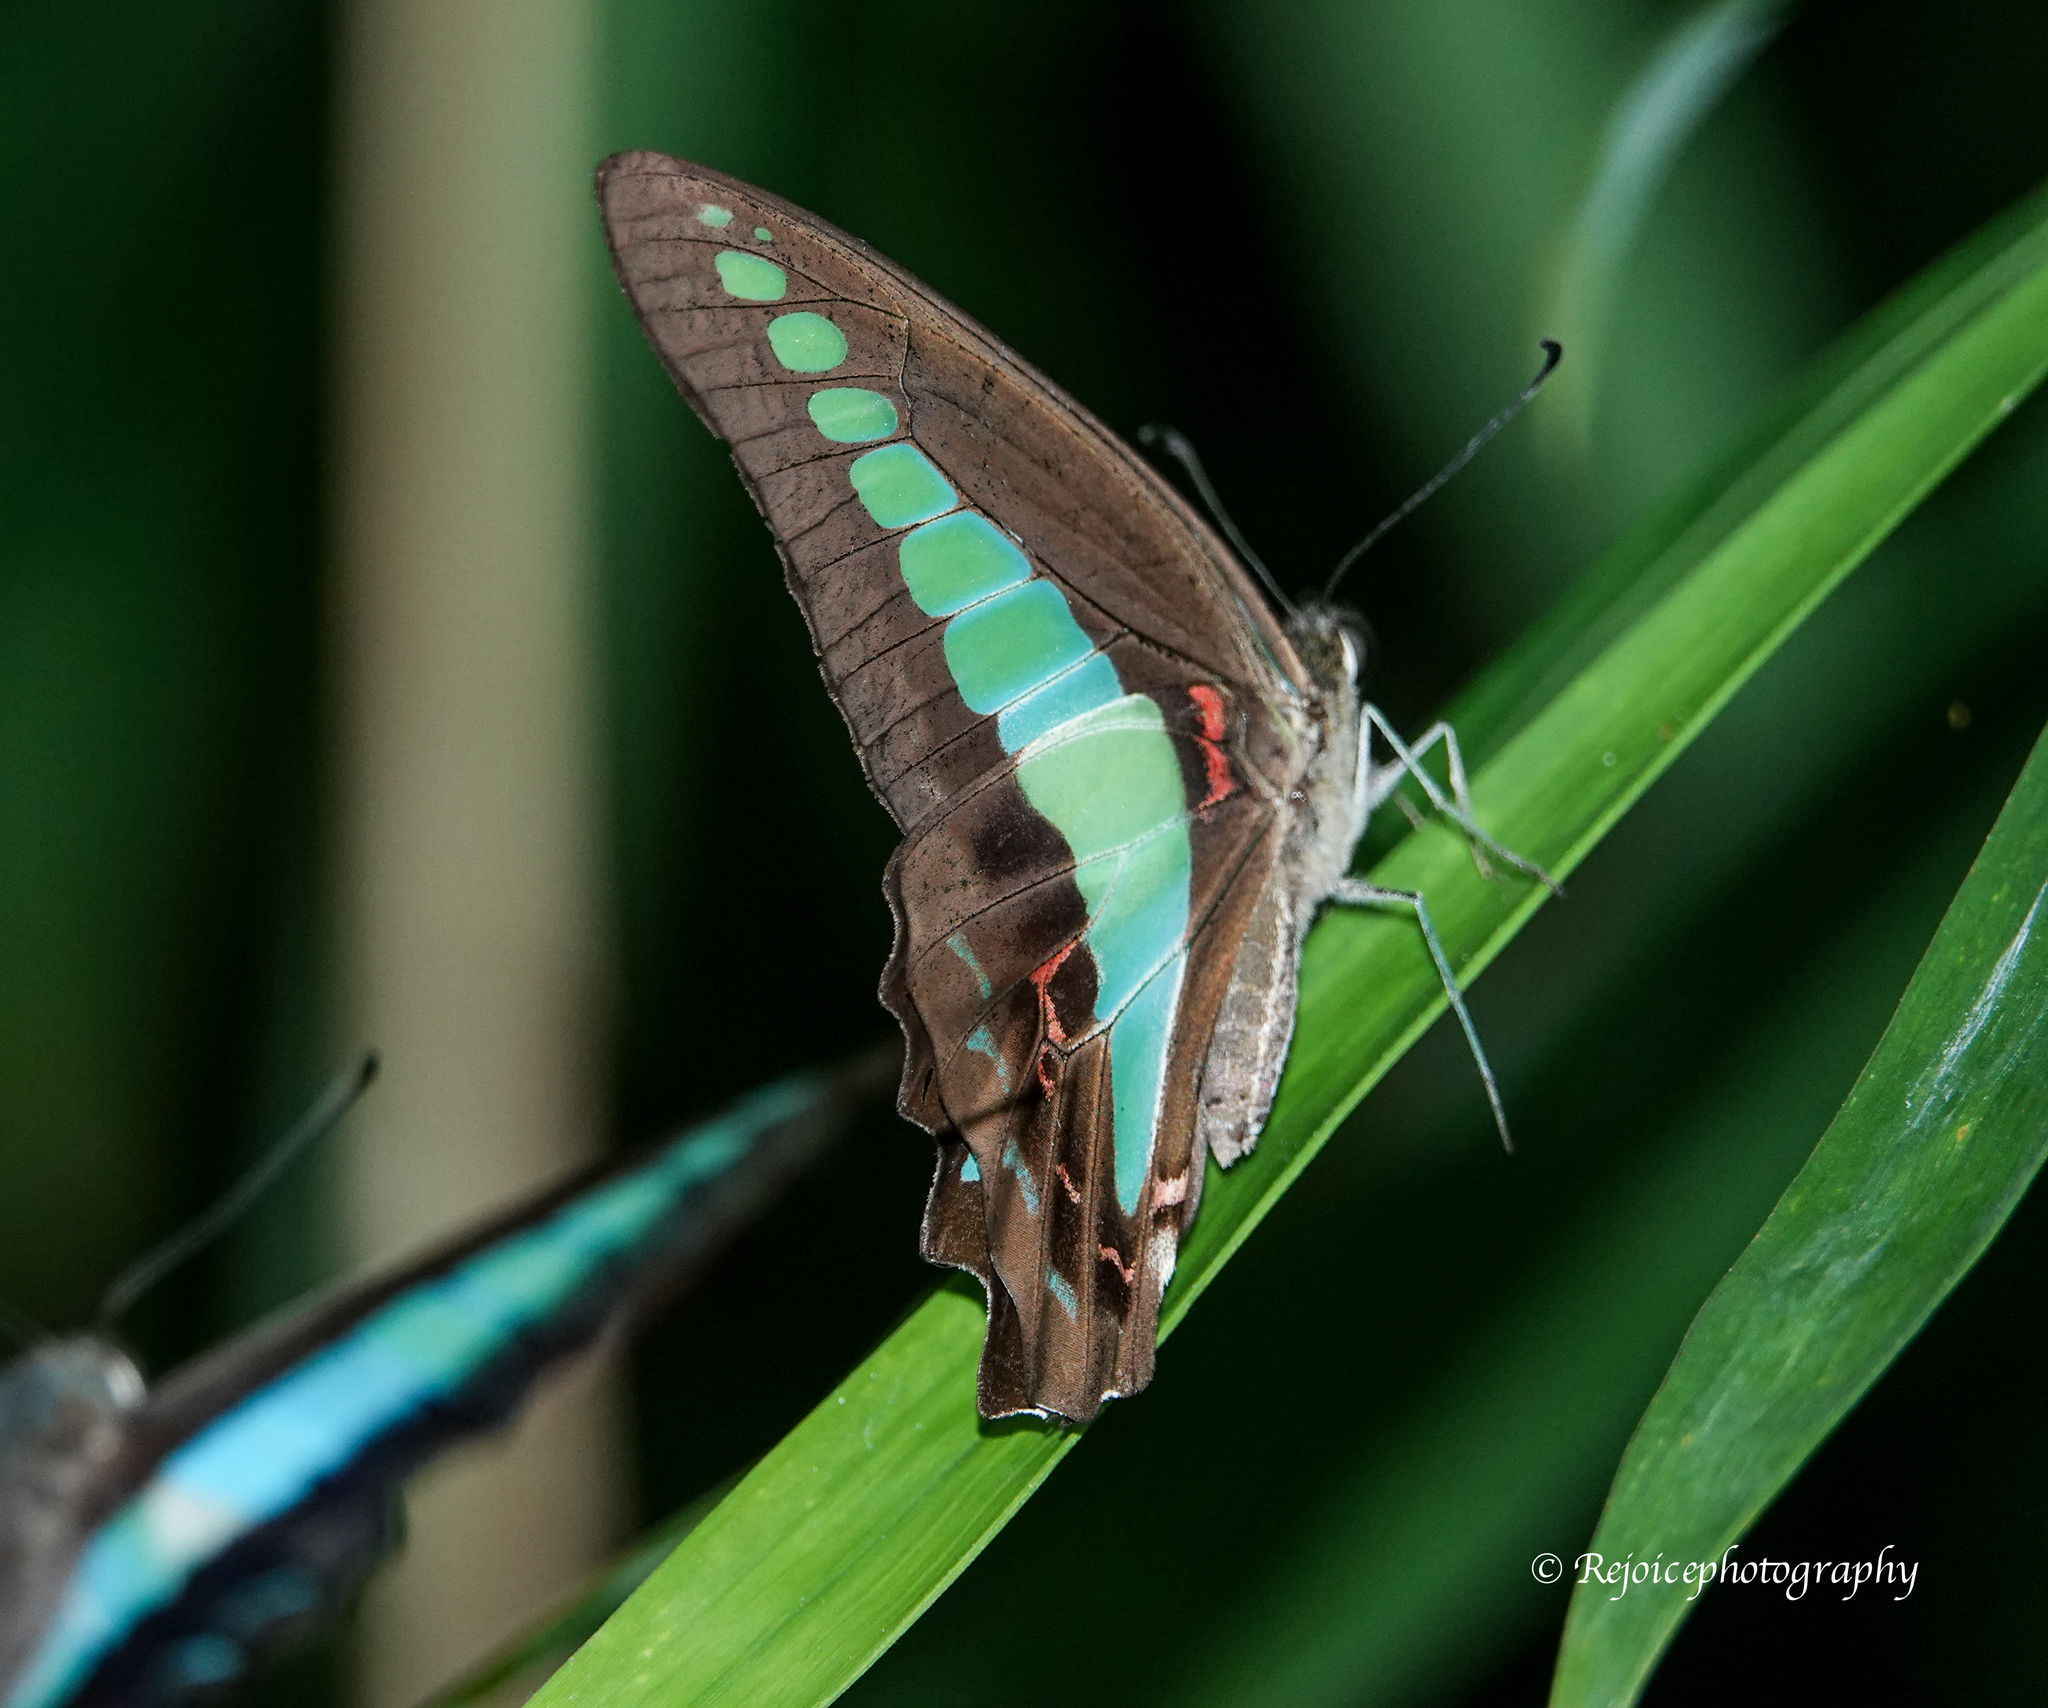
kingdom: Fungi
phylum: Ascomycota
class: Sordariomycetes
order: Microascales
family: Microascaceae
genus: Graphium
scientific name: Graphium sarpedon
